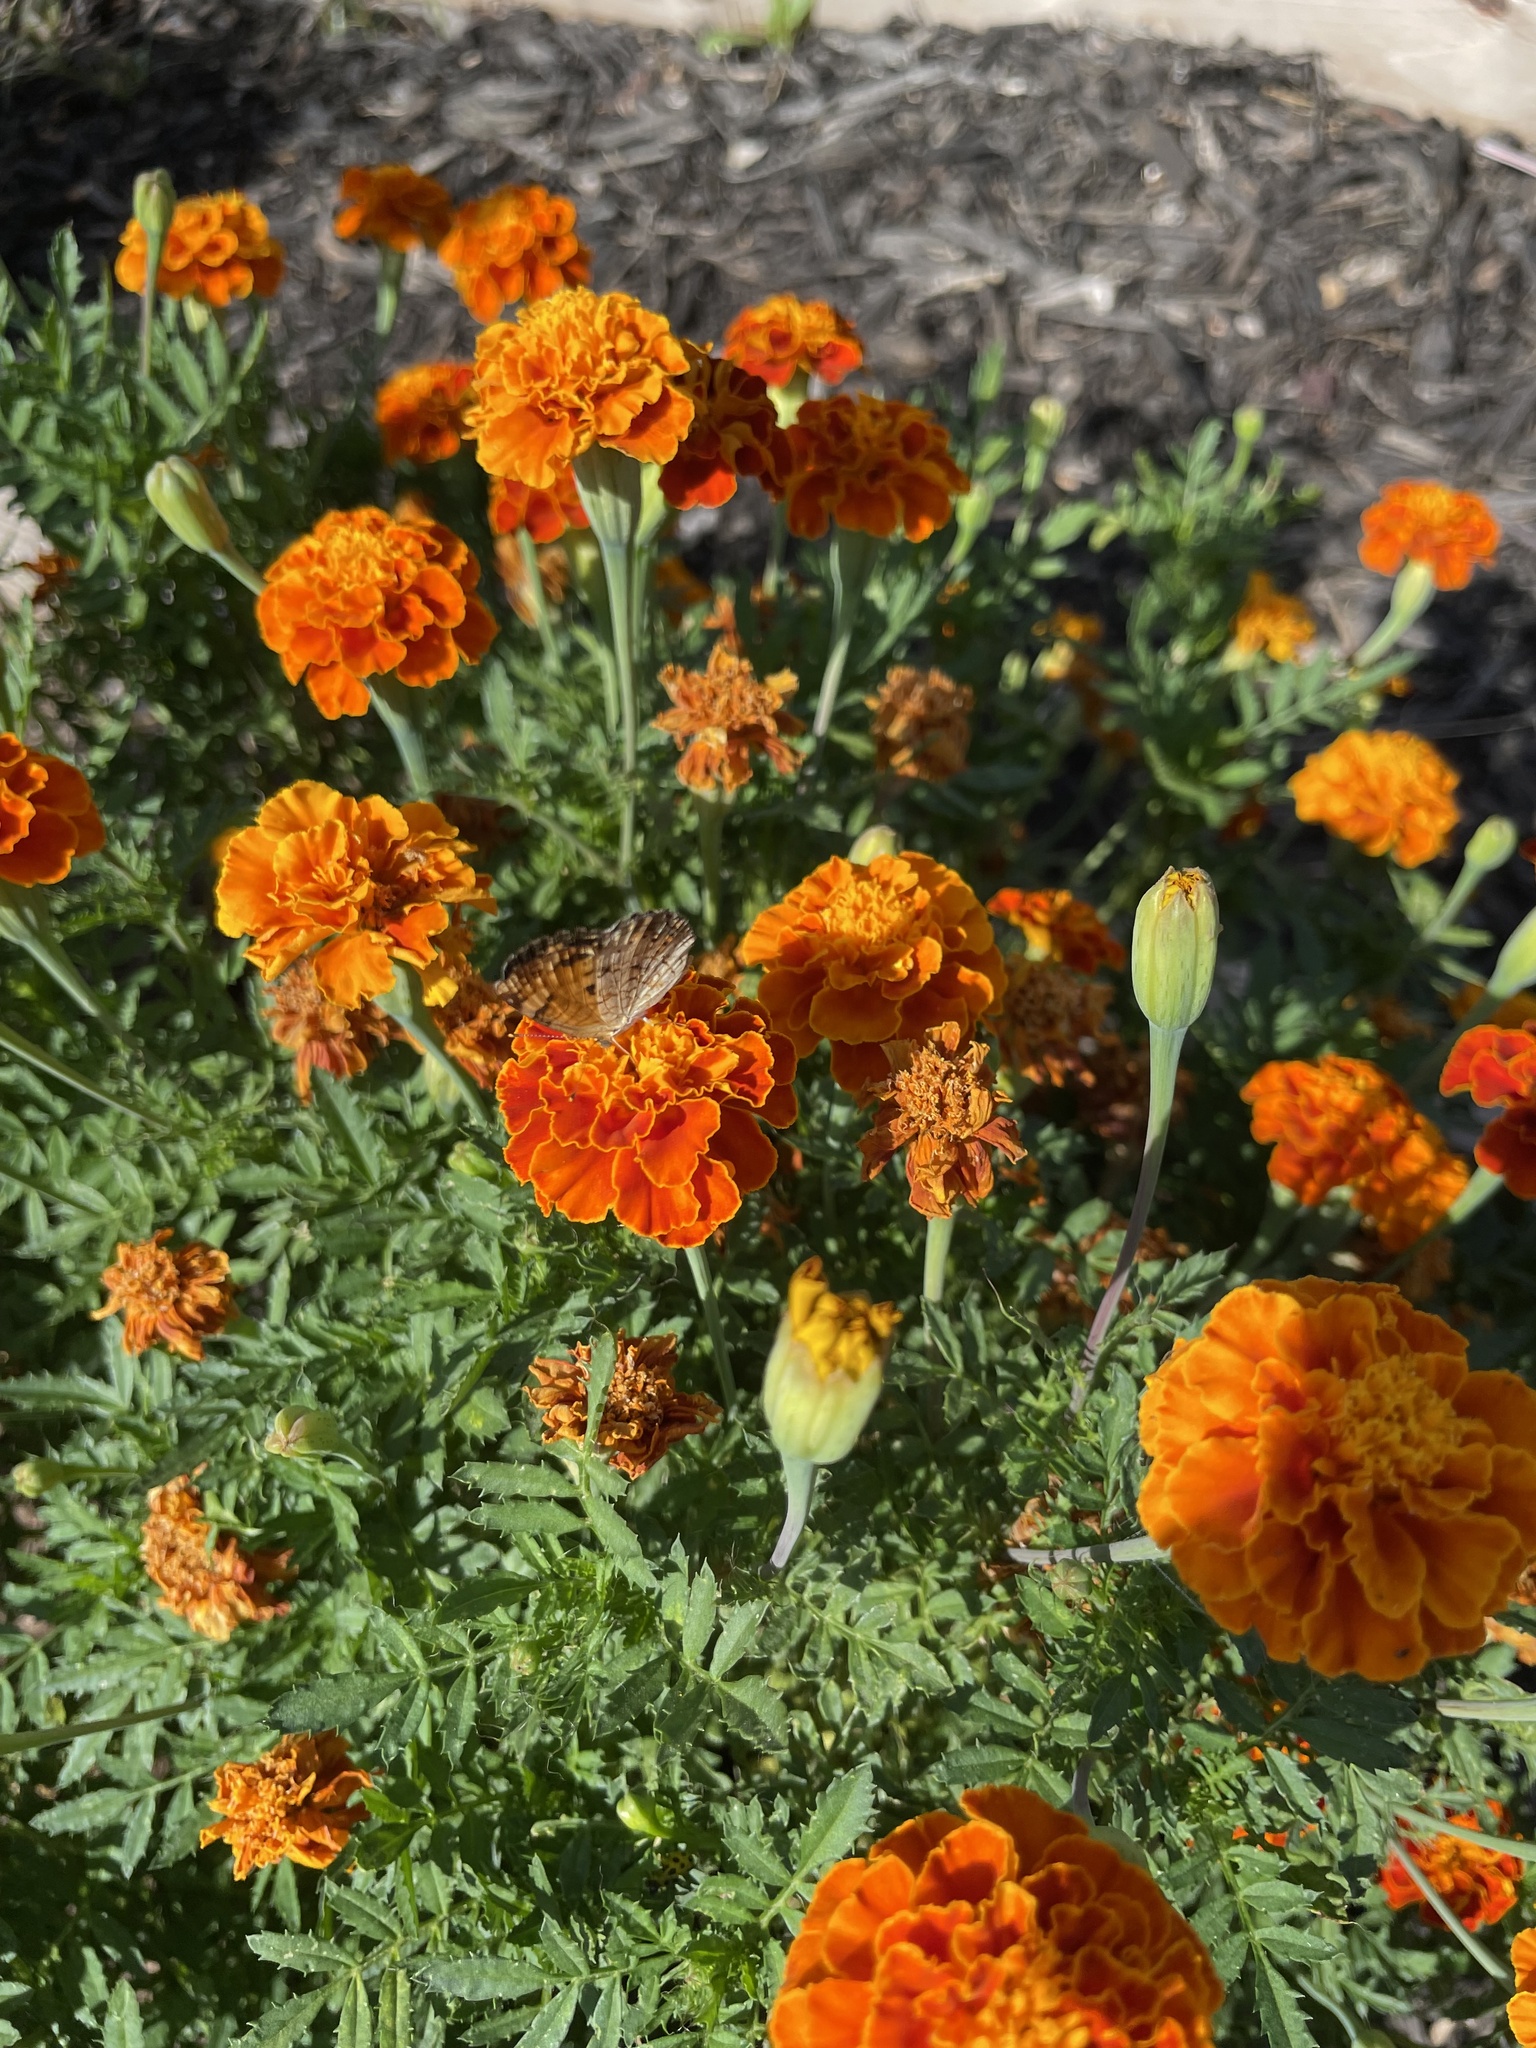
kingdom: Animalia
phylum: Arthropoda
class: Insecta
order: Lepidoptera
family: Nymphalidae
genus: Phyciodes
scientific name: Phyciodes tharos
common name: Pearl crescent
